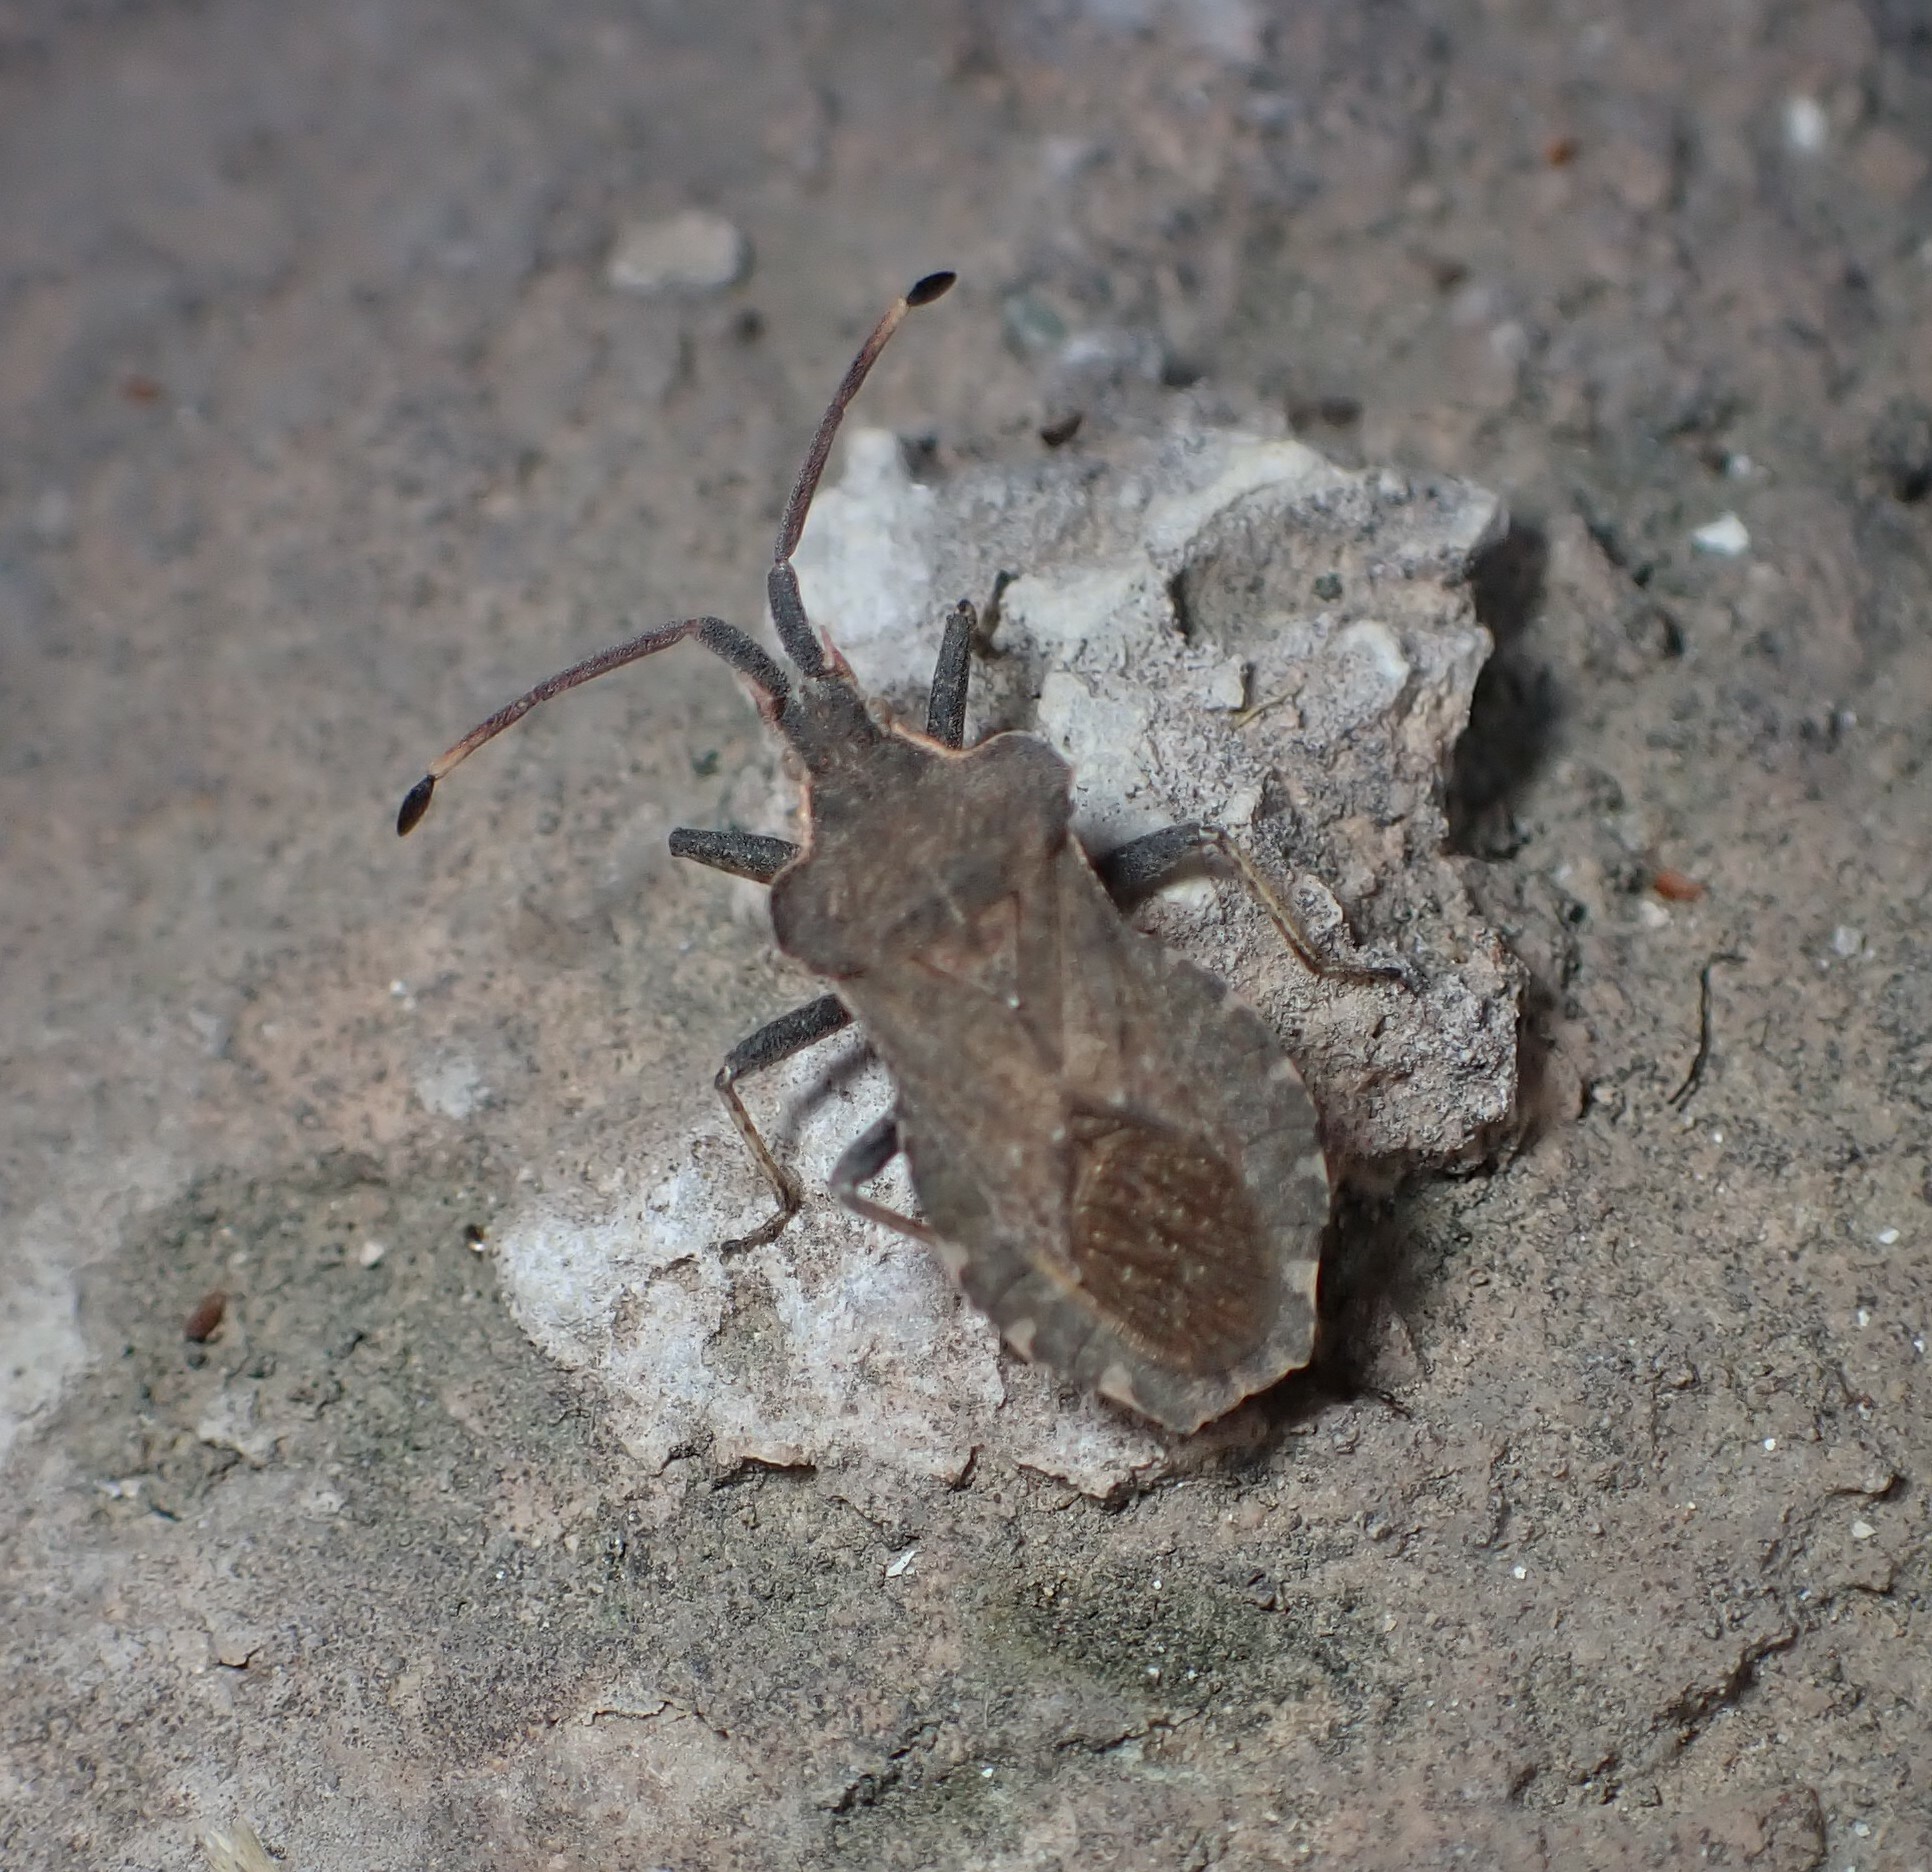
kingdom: Animalia
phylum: Arthropoda
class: Insecta
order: Hemiptera
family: Coreidae
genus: Enoplops
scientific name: Enoplops bos
